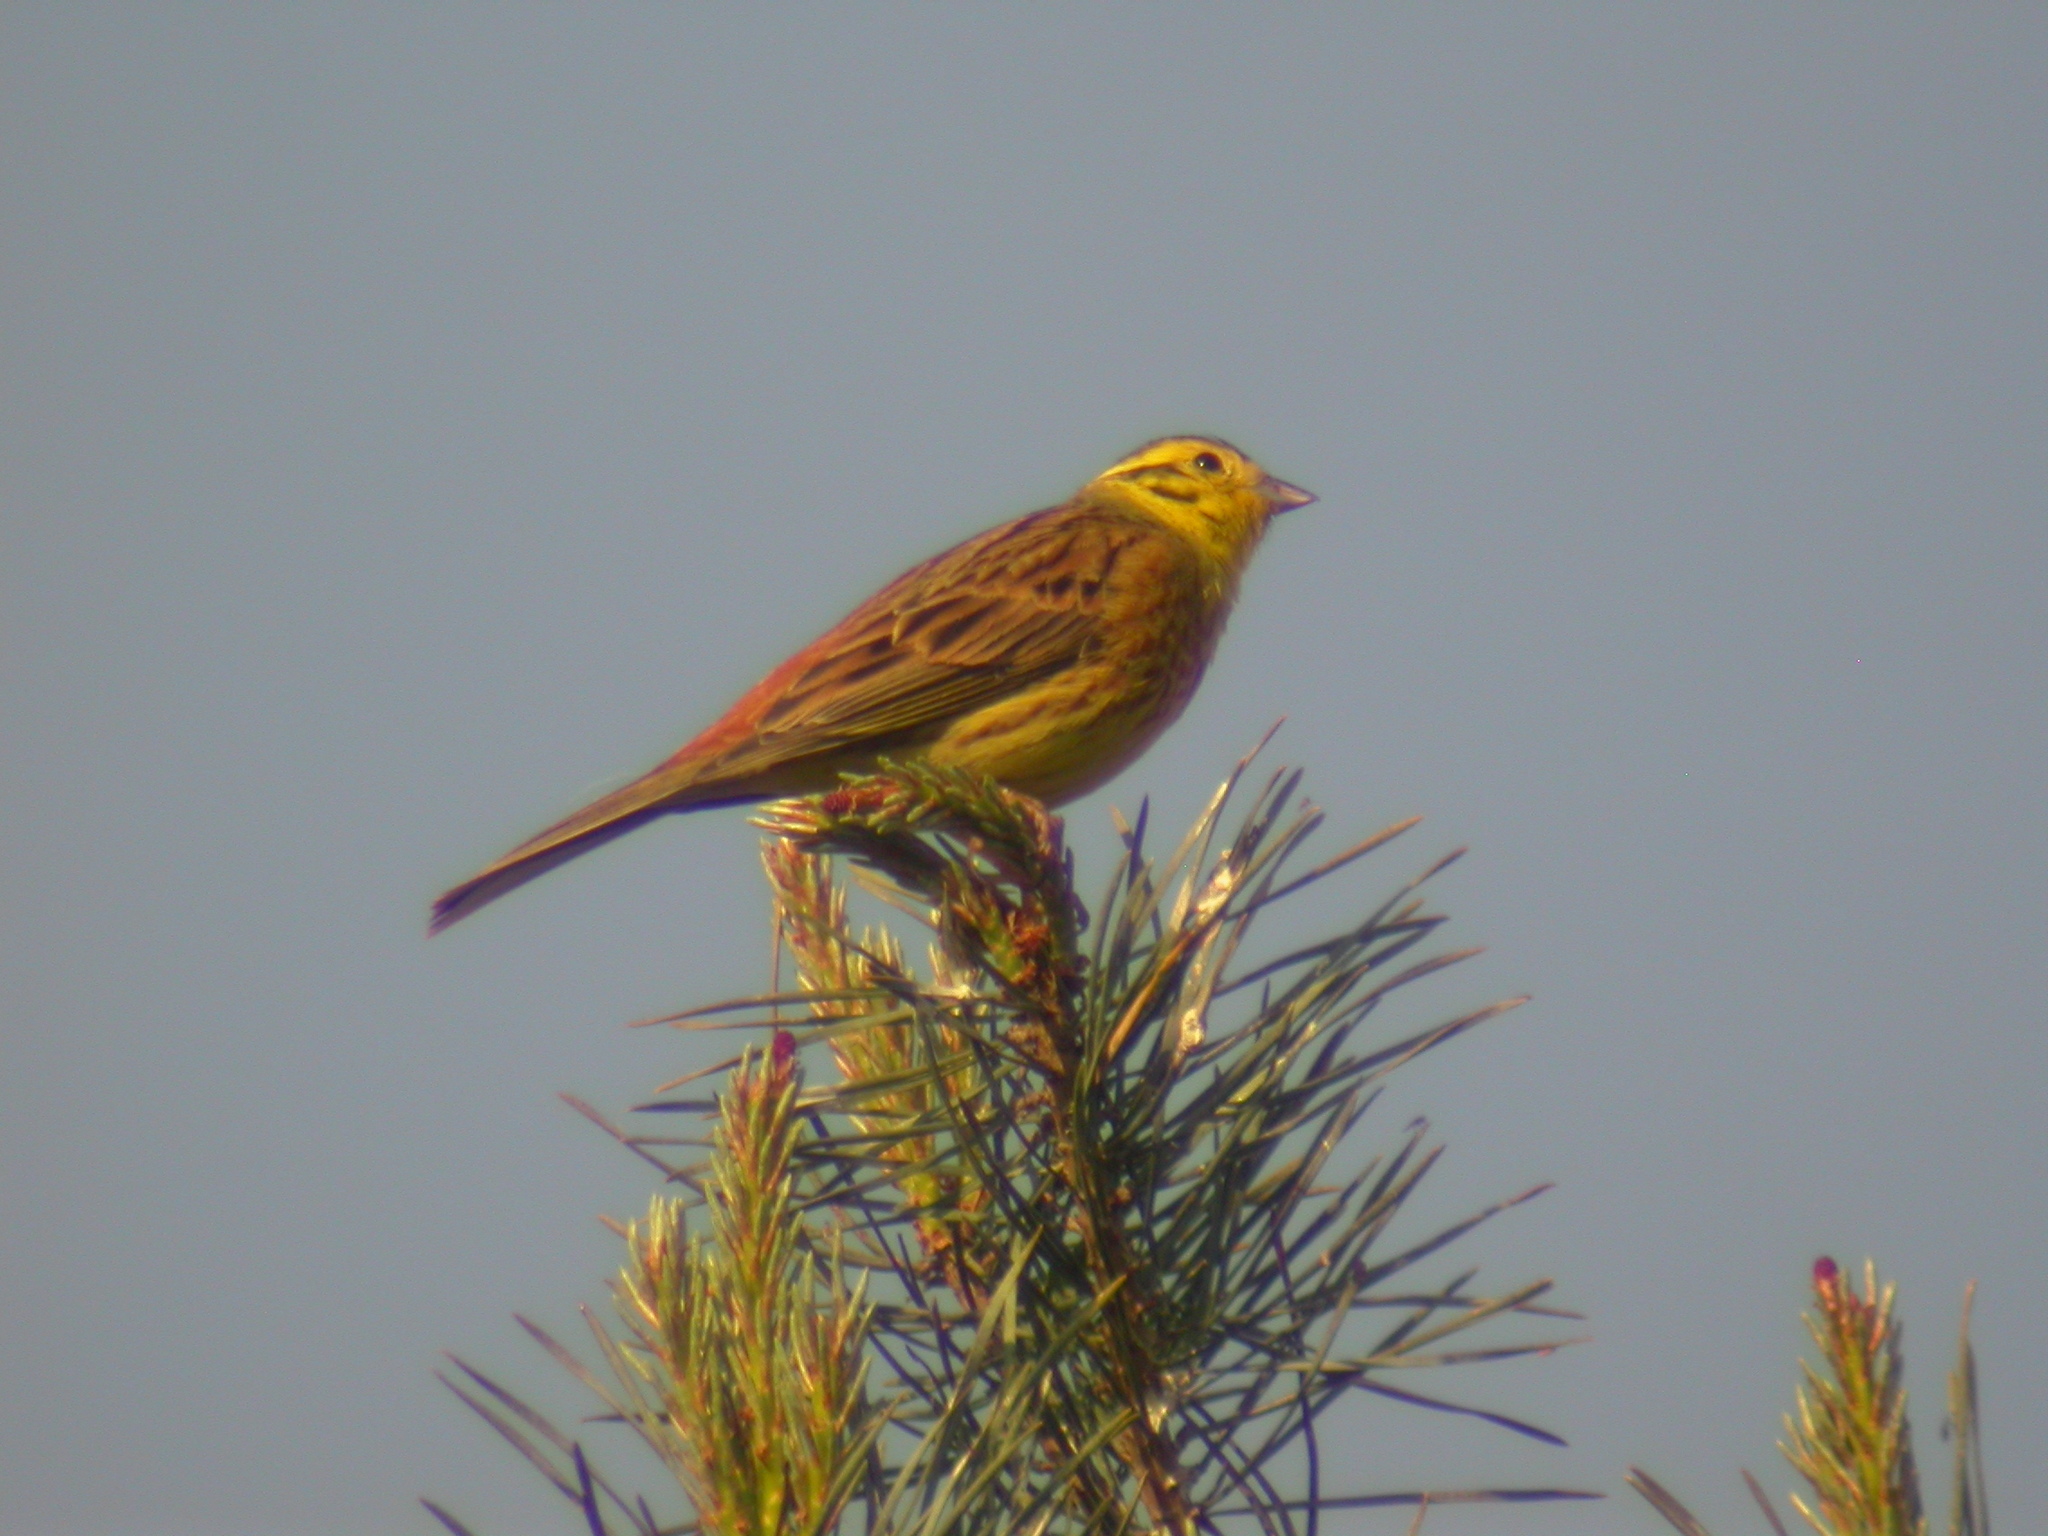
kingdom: Animalia
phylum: Chordata
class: Aves
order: Passeriformes
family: Emberizidae
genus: Emberiza
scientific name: Emberiza citrinella
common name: Yellowhammer
